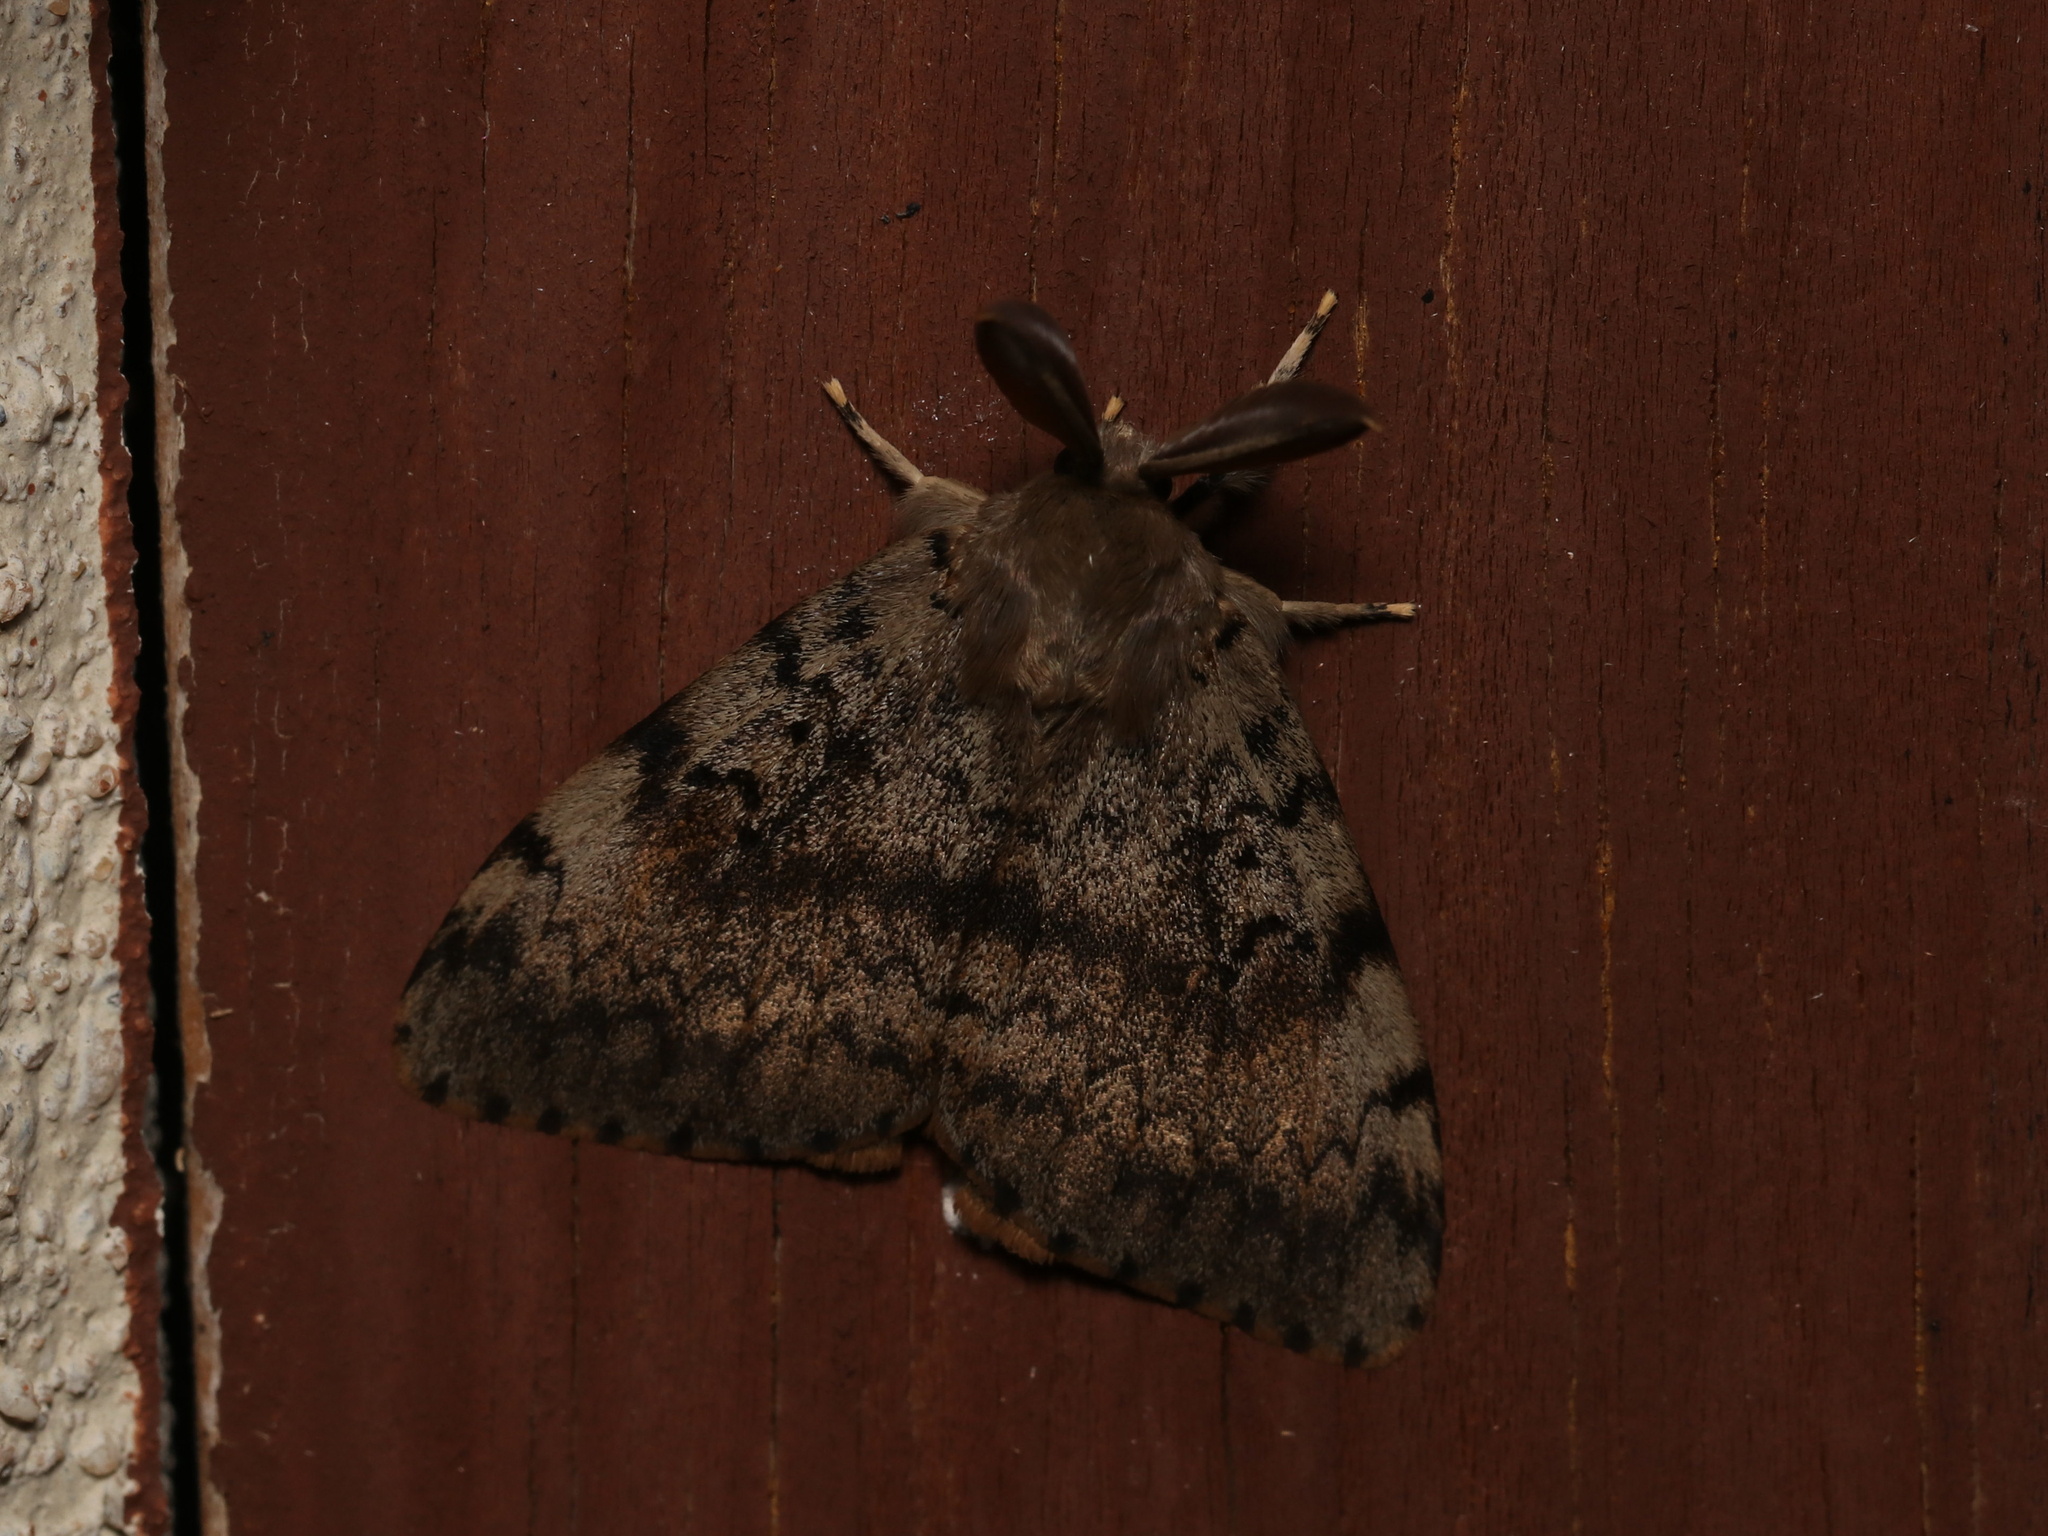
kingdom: Animalia
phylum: Arthropoda
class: Insecta
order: Lepidoptera
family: Erebidae
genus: Lymantria
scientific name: Lymantria dispar
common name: Gypsy moth
